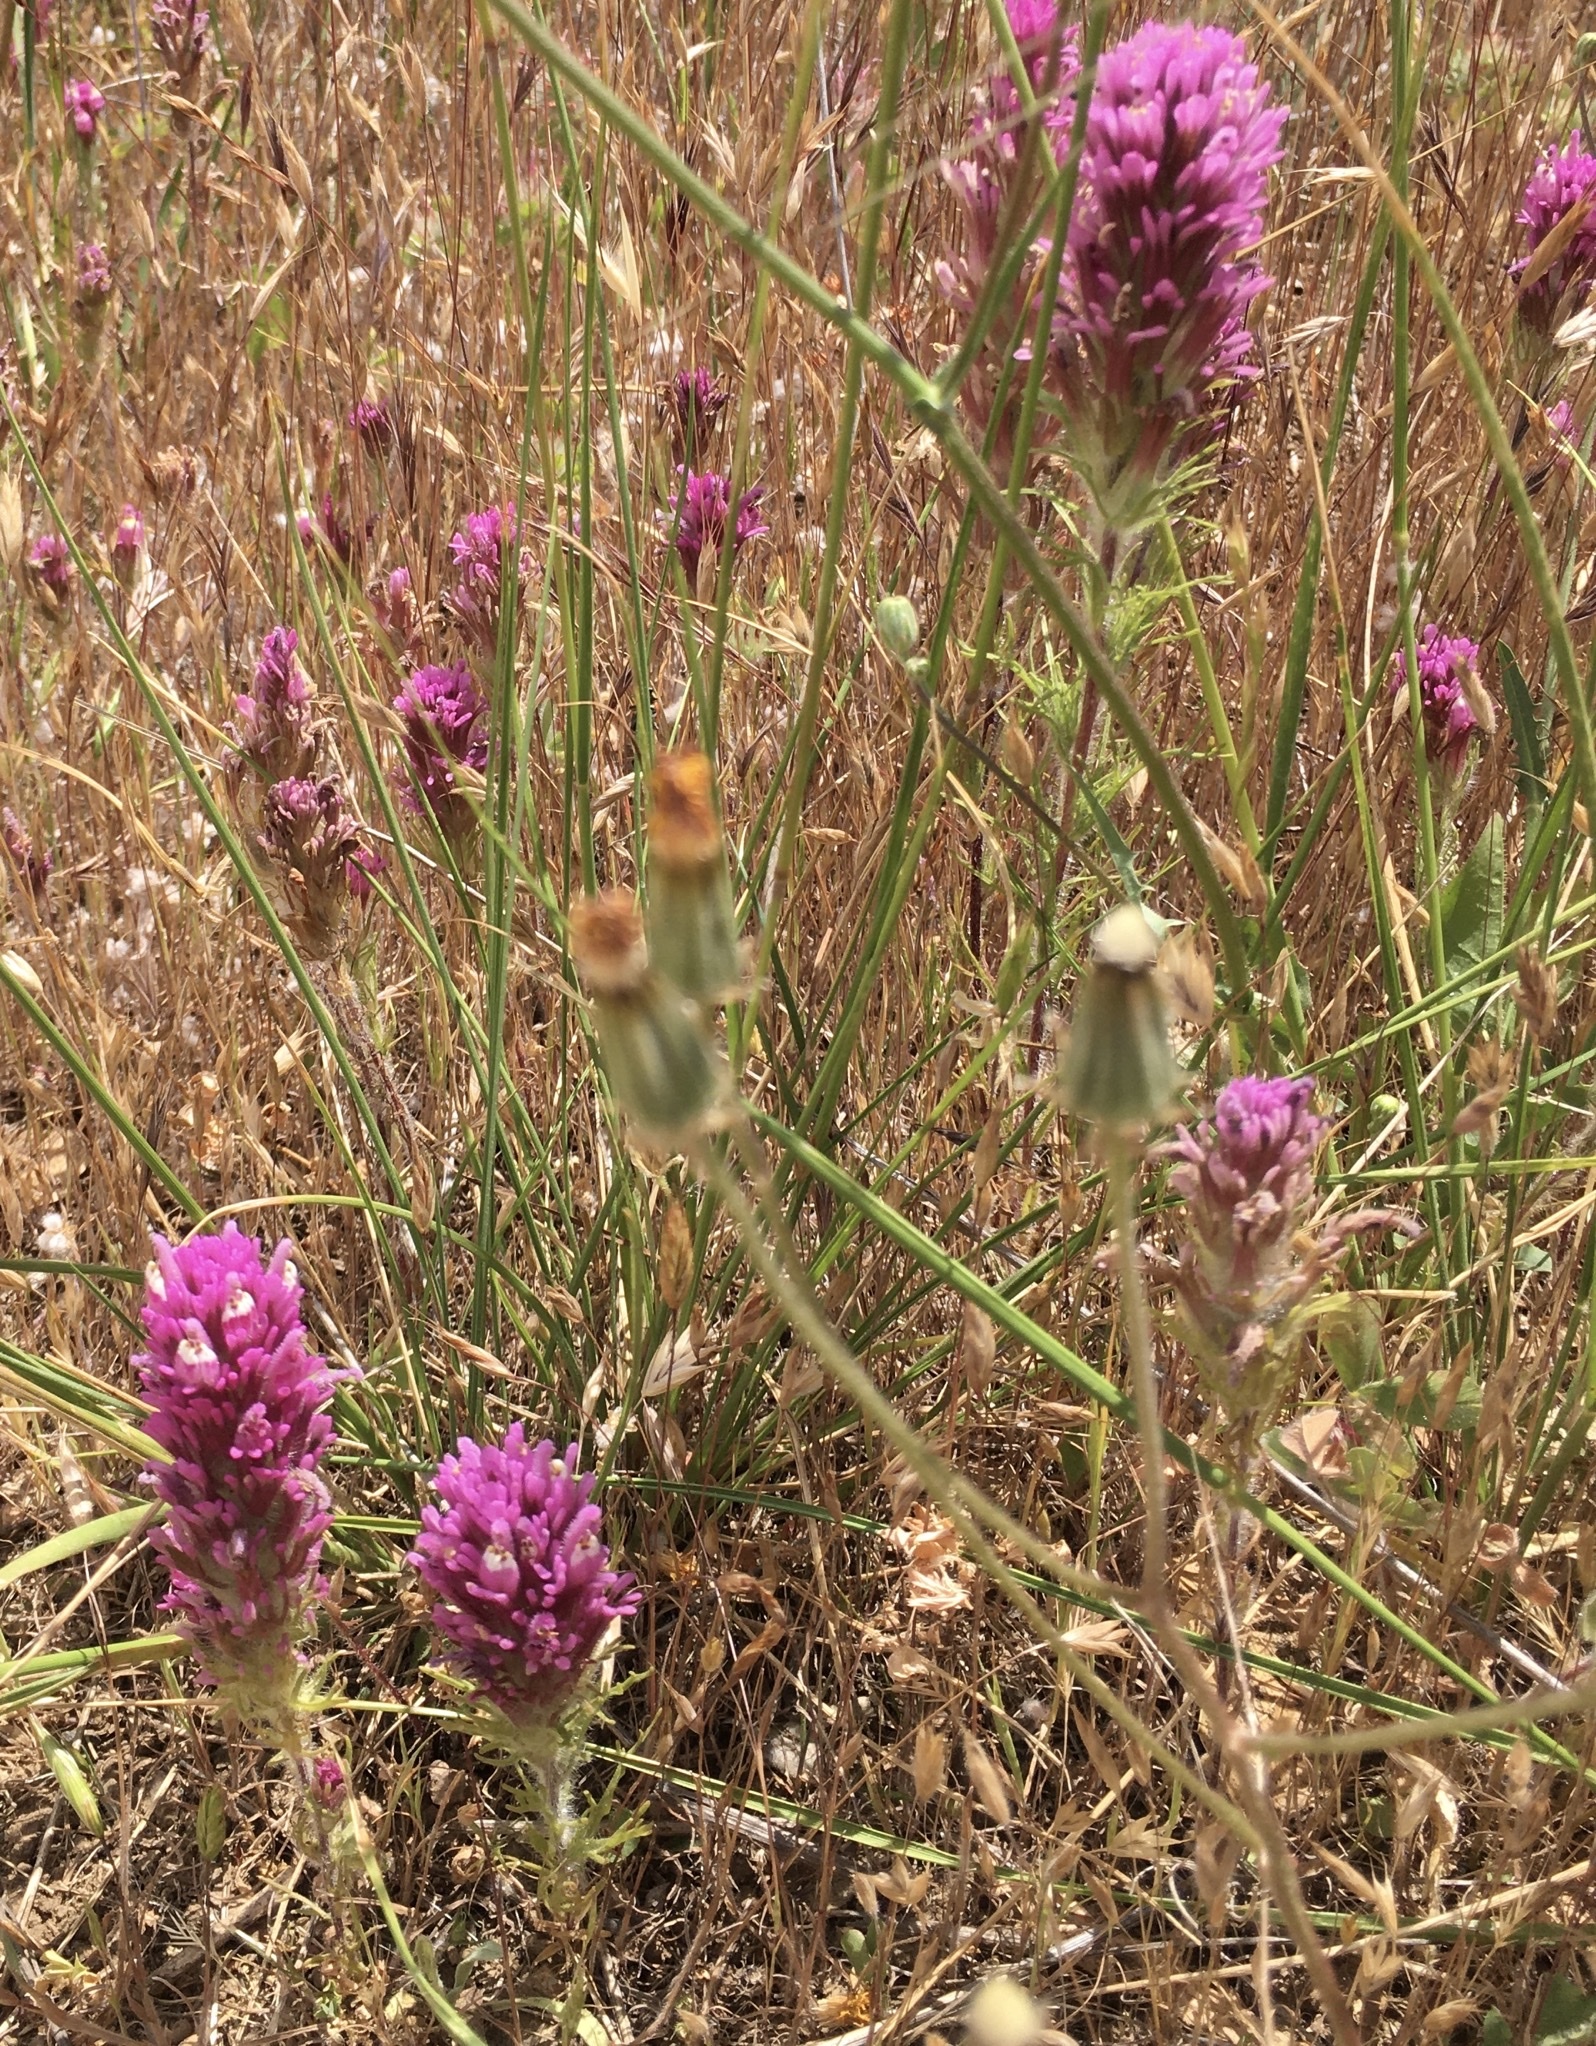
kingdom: Plantae
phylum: Tracheophyta
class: Magnoliopsida
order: Lamiales
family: Orobanchaceae
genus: Castilleja
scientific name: Castilleja exserta
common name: Purple owl-clover
